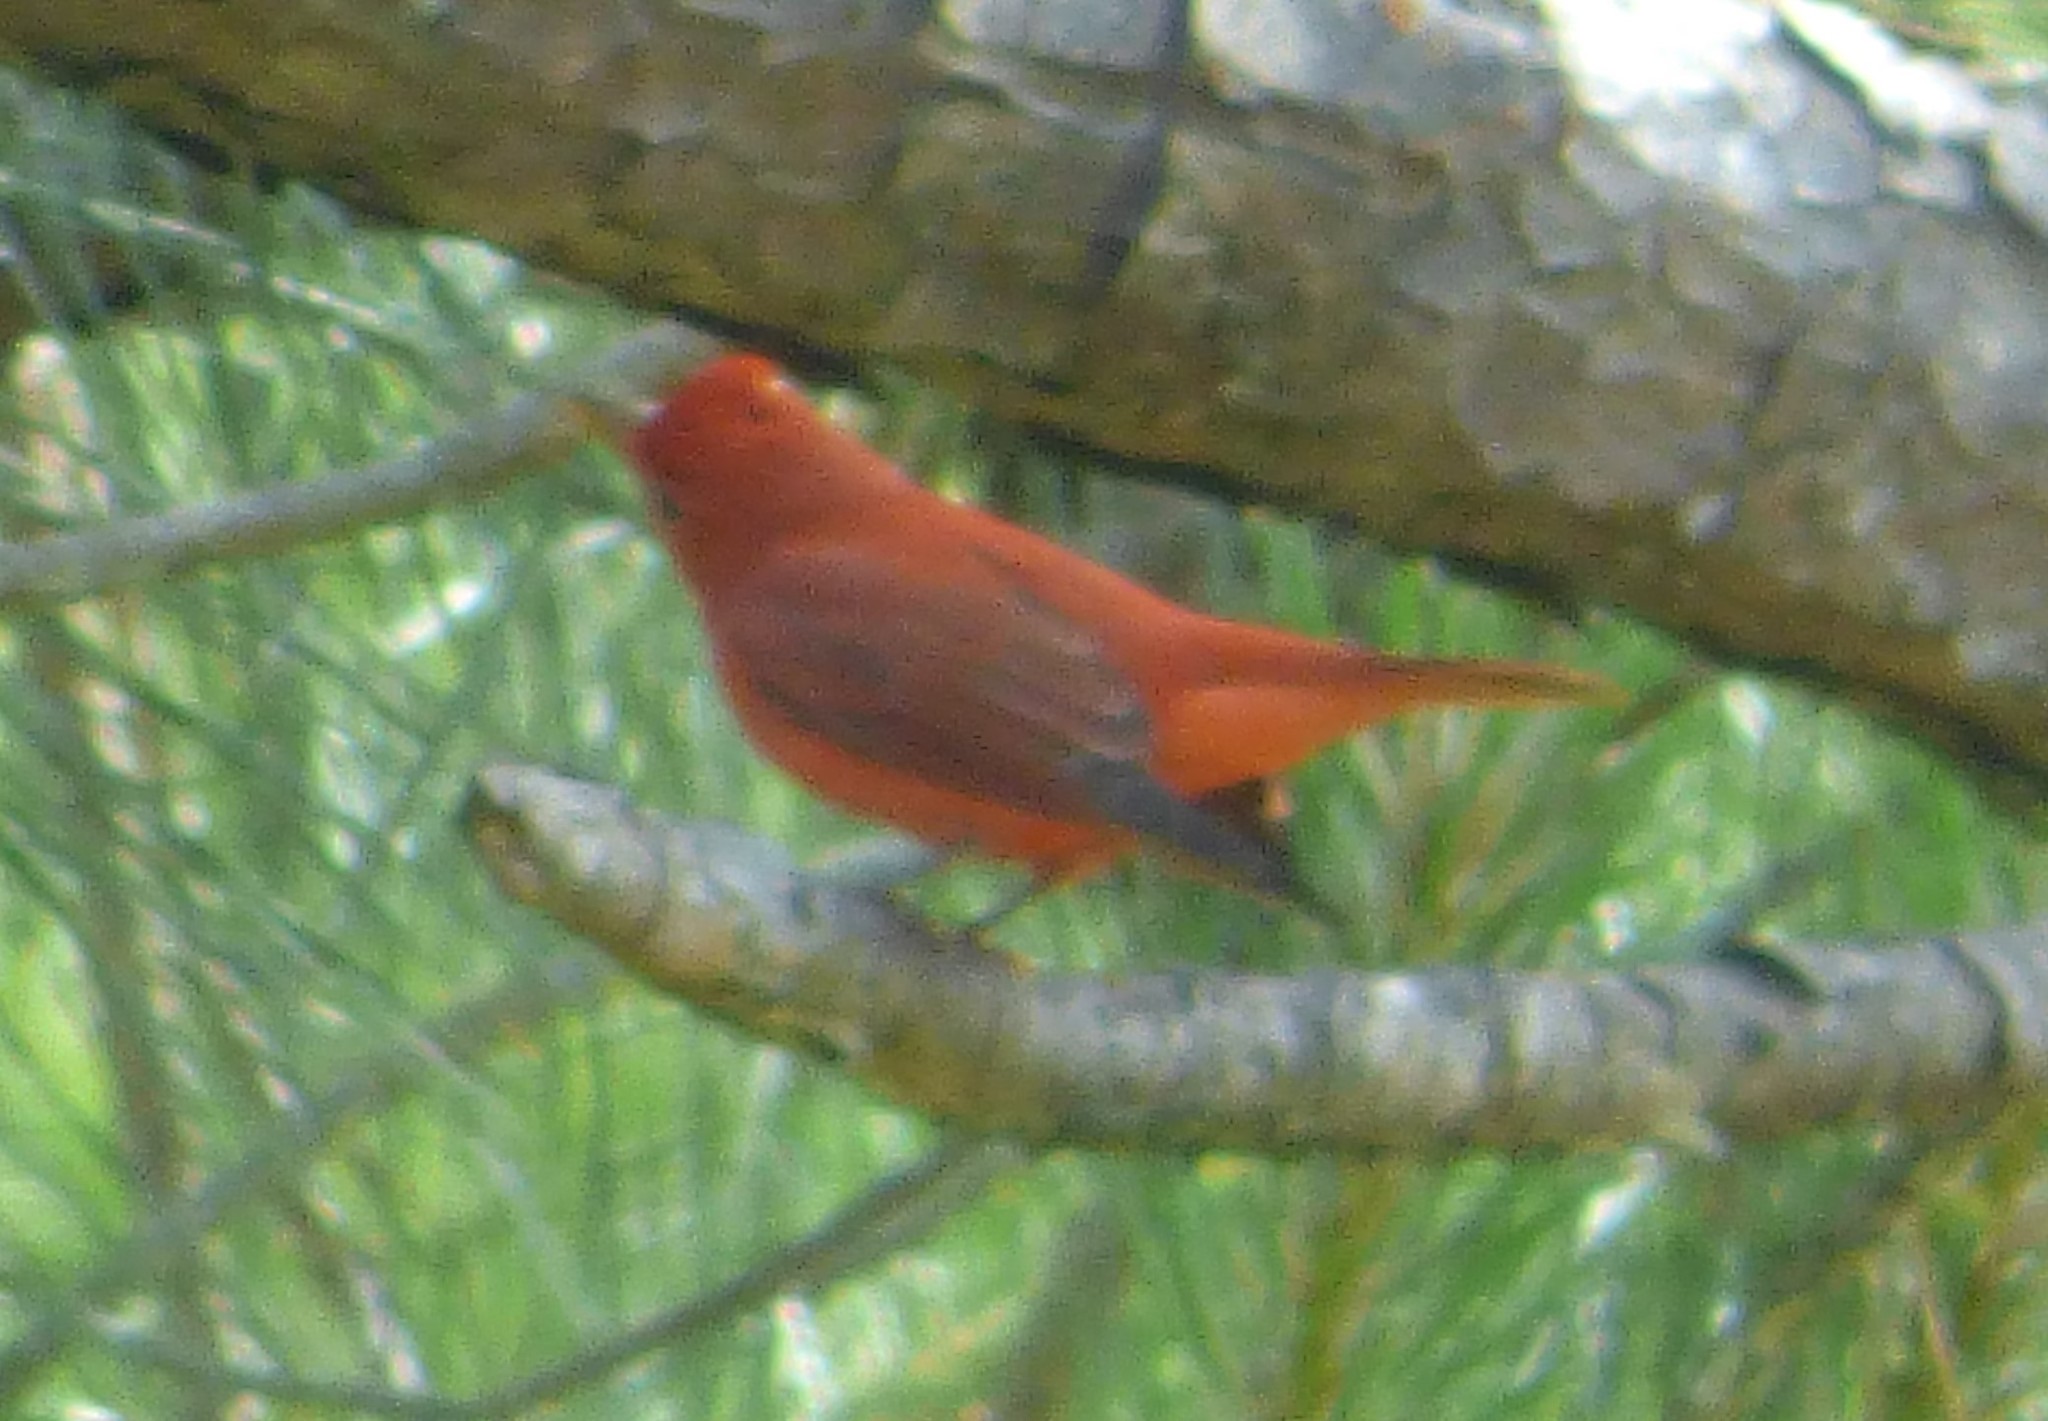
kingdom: Animalia
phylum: Chordata
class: Aves
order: Passeriformes
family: Cardinalidae
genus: Piranga
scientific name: Piranga rubra
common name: Summer tanager
